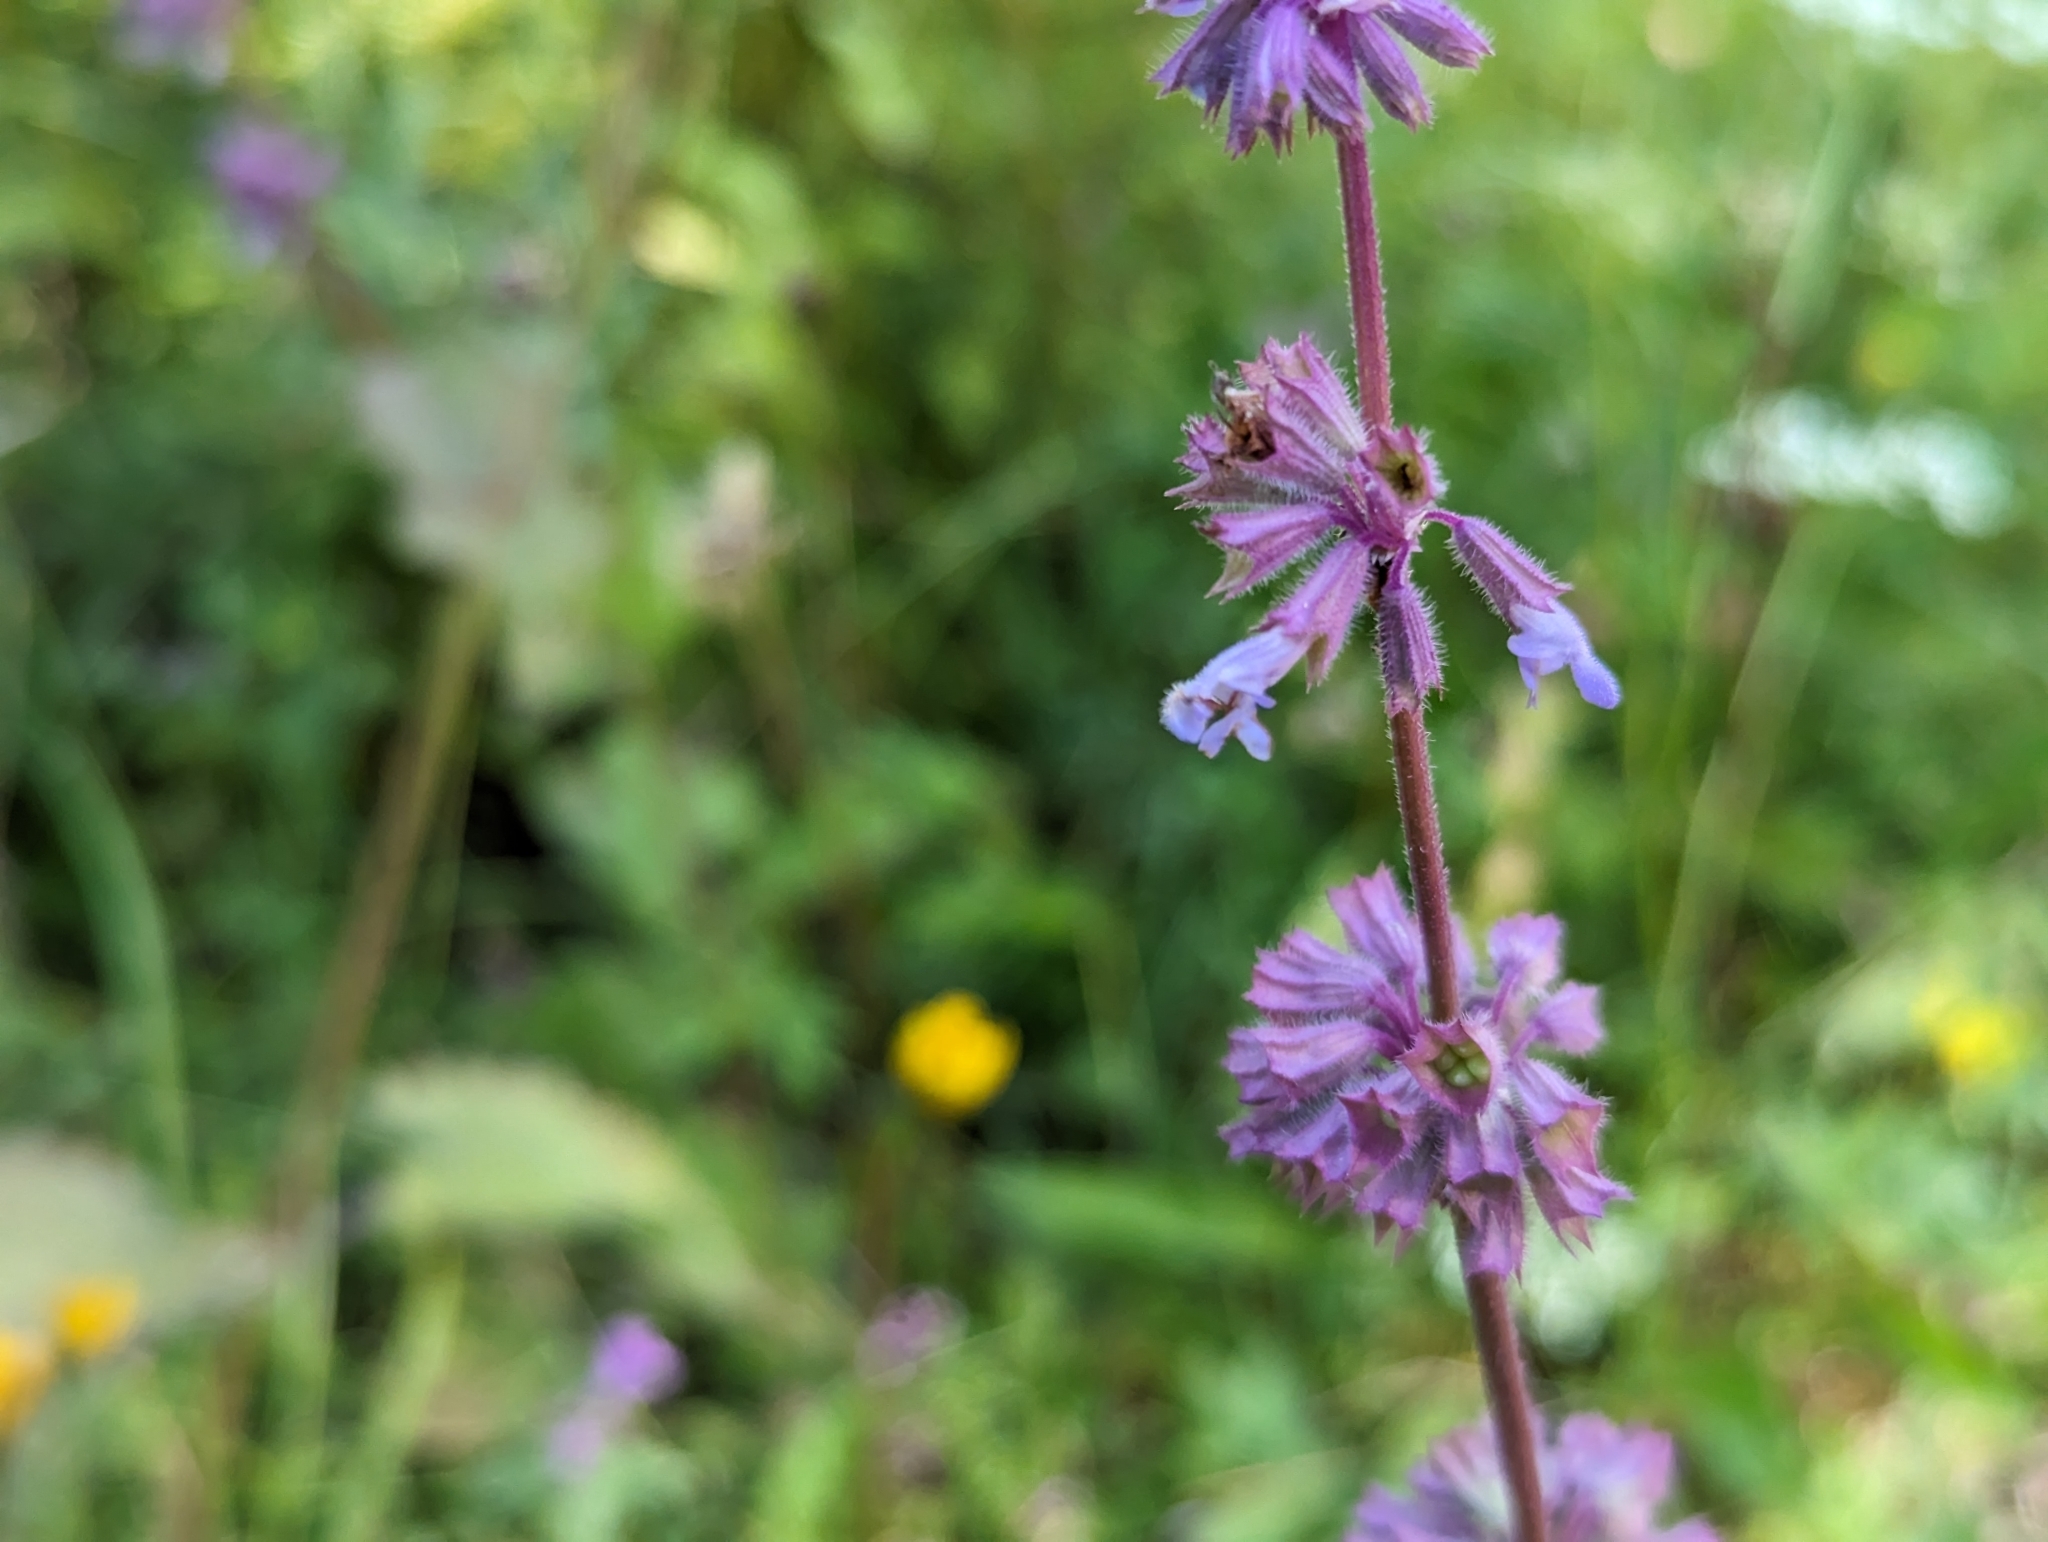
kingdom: Plantae
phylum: Tracheophyta
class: Magnoliopsida
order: Lamiales
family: Lamiaceae
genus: Salvia
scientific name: Salvia verticillata
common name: Whorled clary
